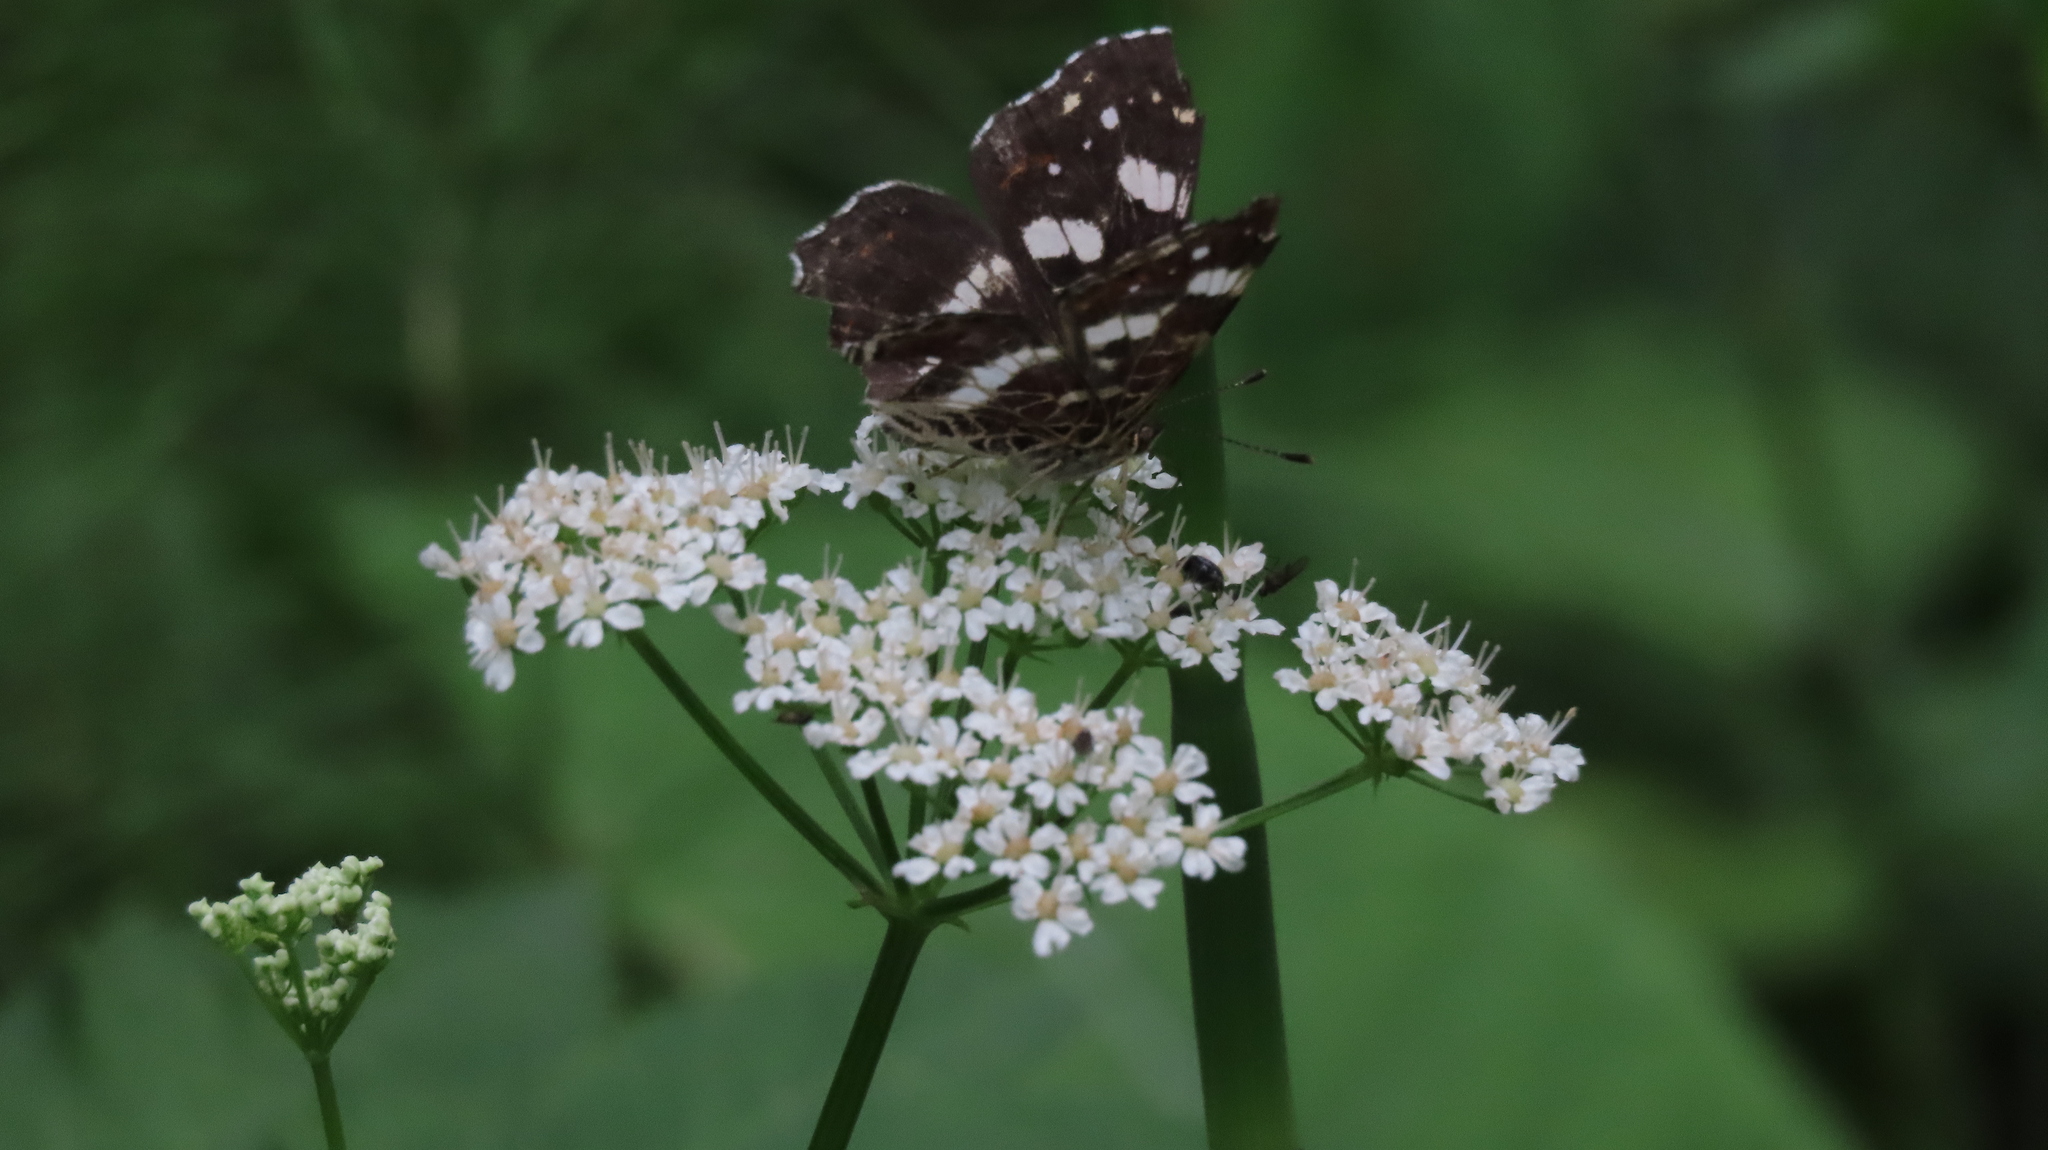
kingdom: Animalia
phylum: Arthropoda
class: Insecta
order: Lepidoptera
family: Nymphalidae
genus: Araschnia
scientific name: Araschnia levana
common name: Map butterfly
